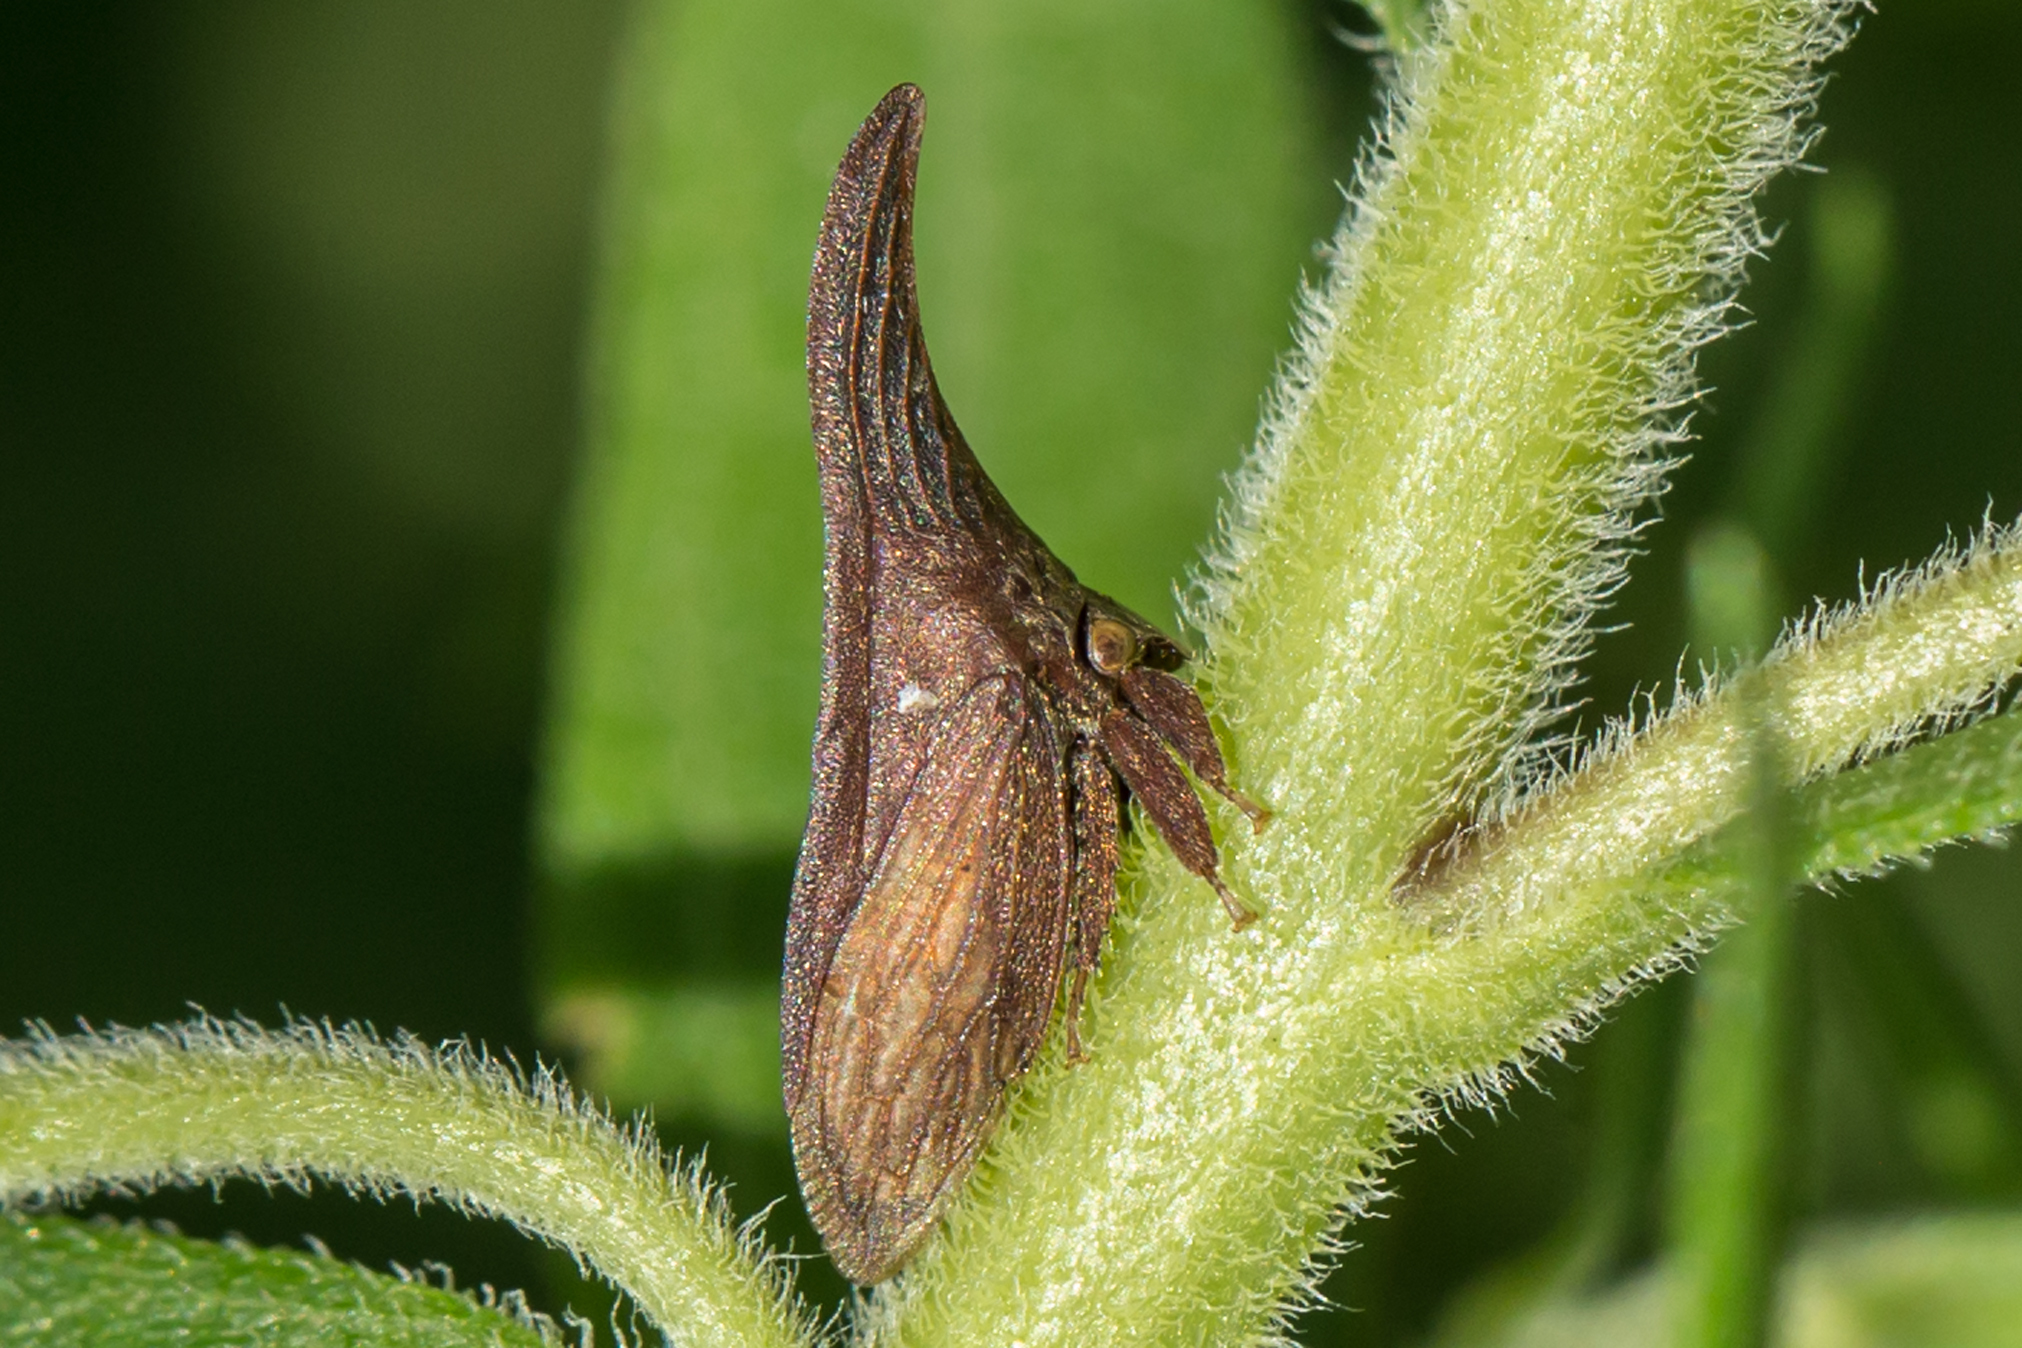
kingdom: Animalia
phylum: Arthropoda
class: Insecta
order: Hemiptera
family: Membracidae
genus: Enchenopa
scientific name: Enchenopa latipes
